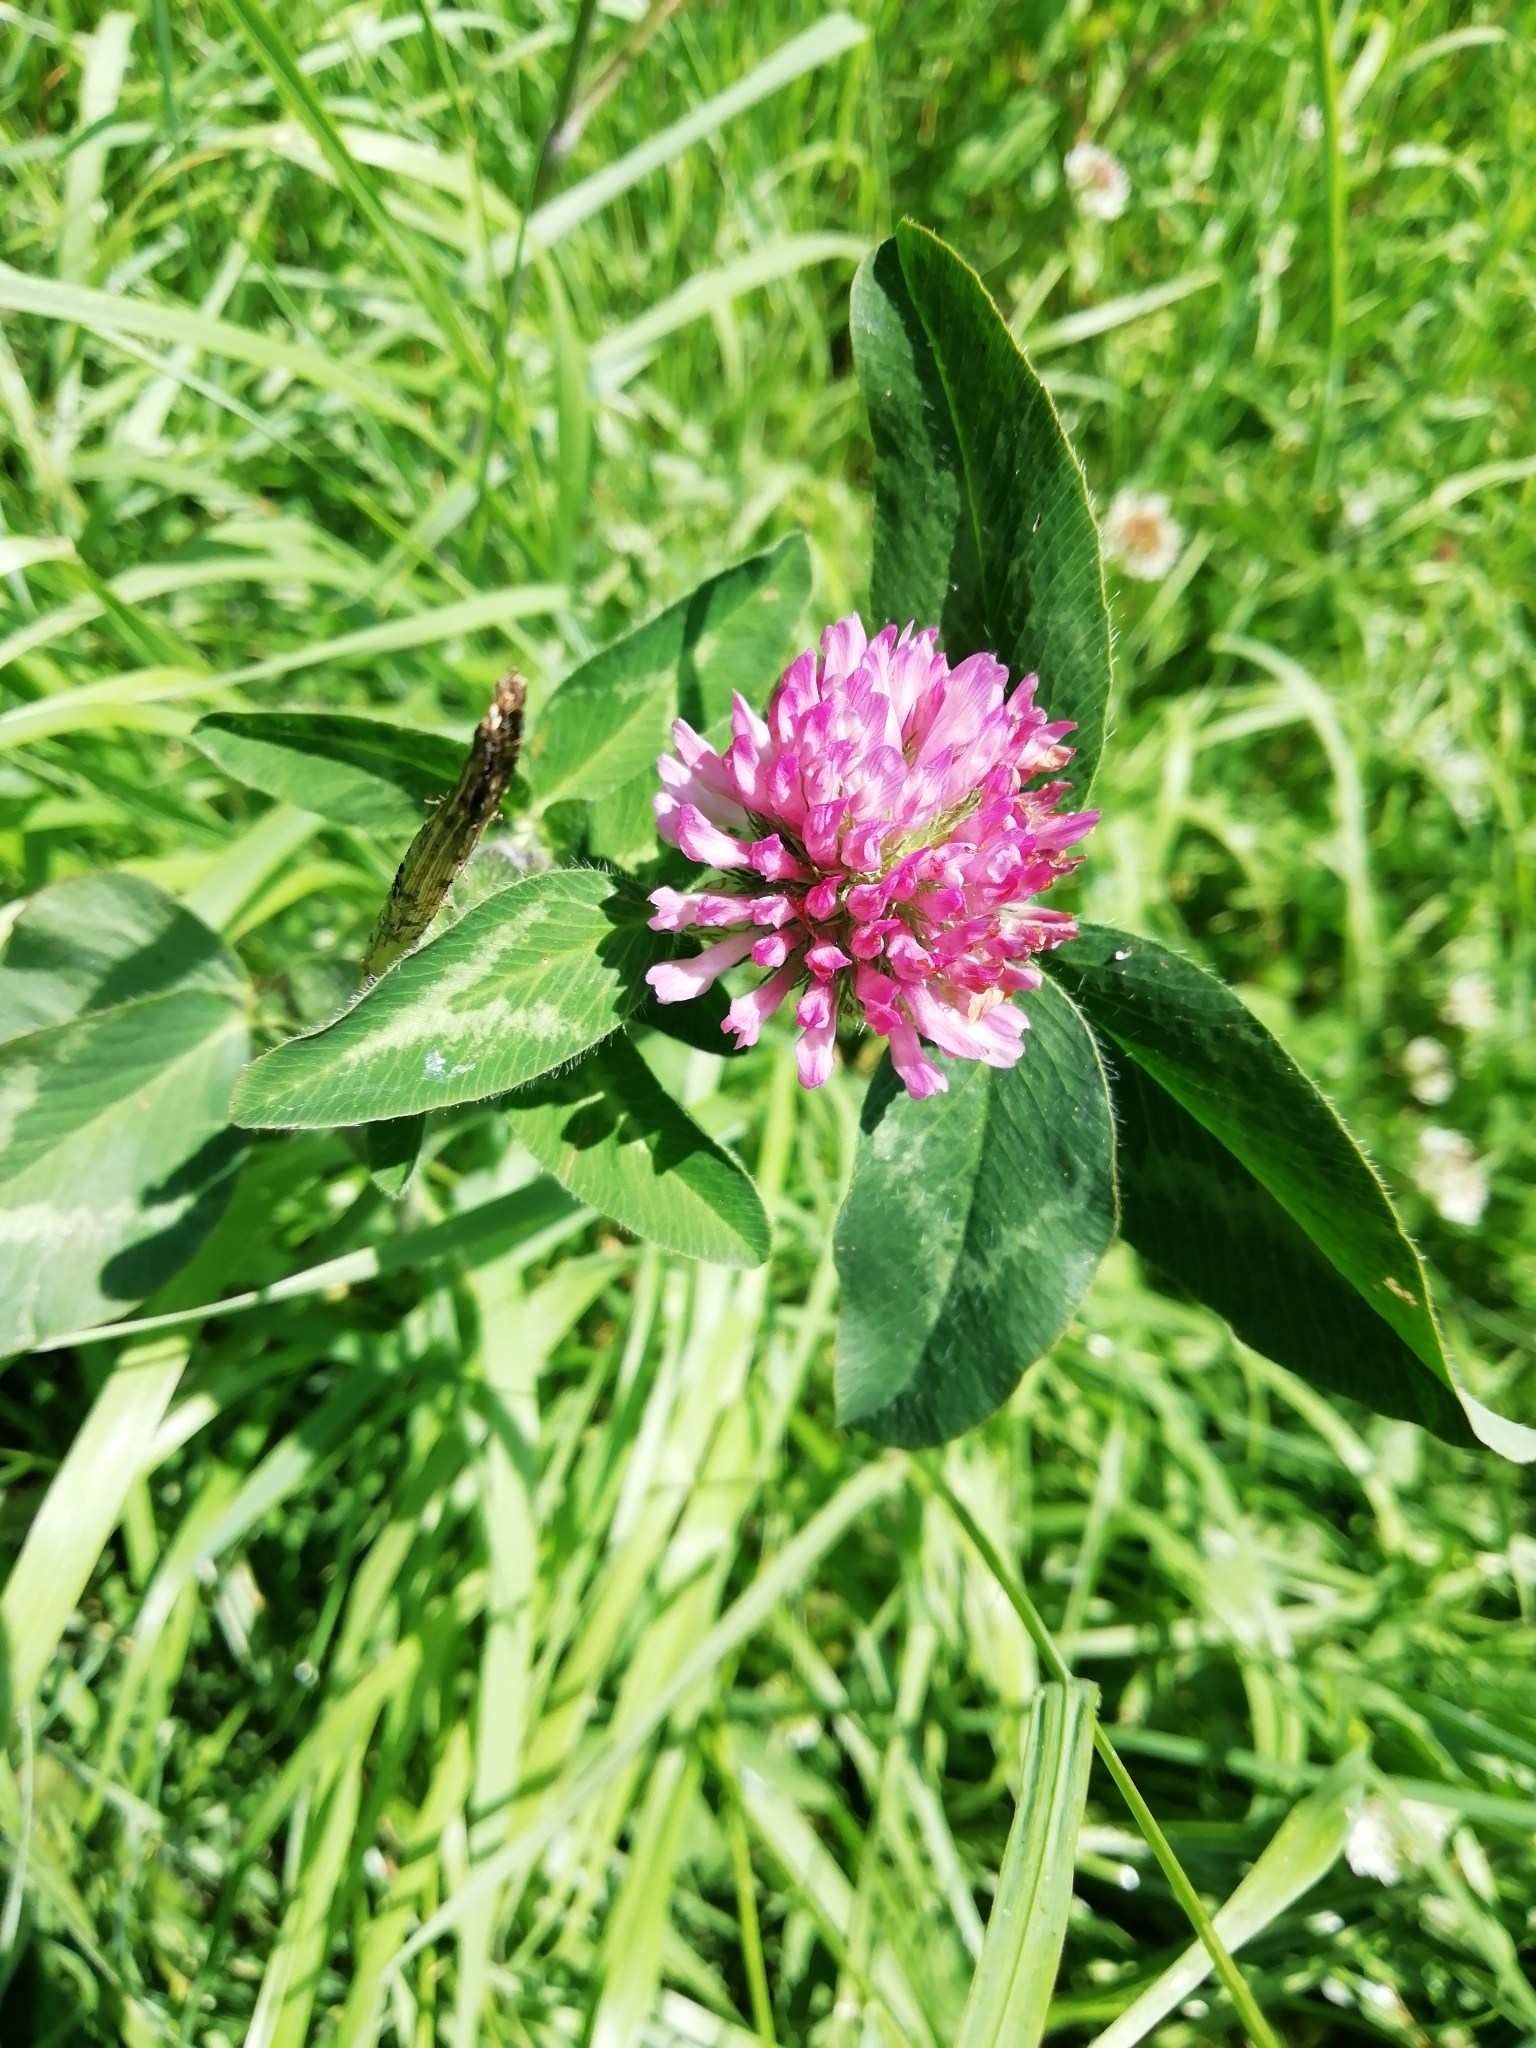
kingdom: Plantae
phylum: Tracheophyta
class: Magnoliopsida
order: Fabales
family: Fabaceae
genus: Trifolium
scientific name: Trifolium pratense
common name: Red clover
